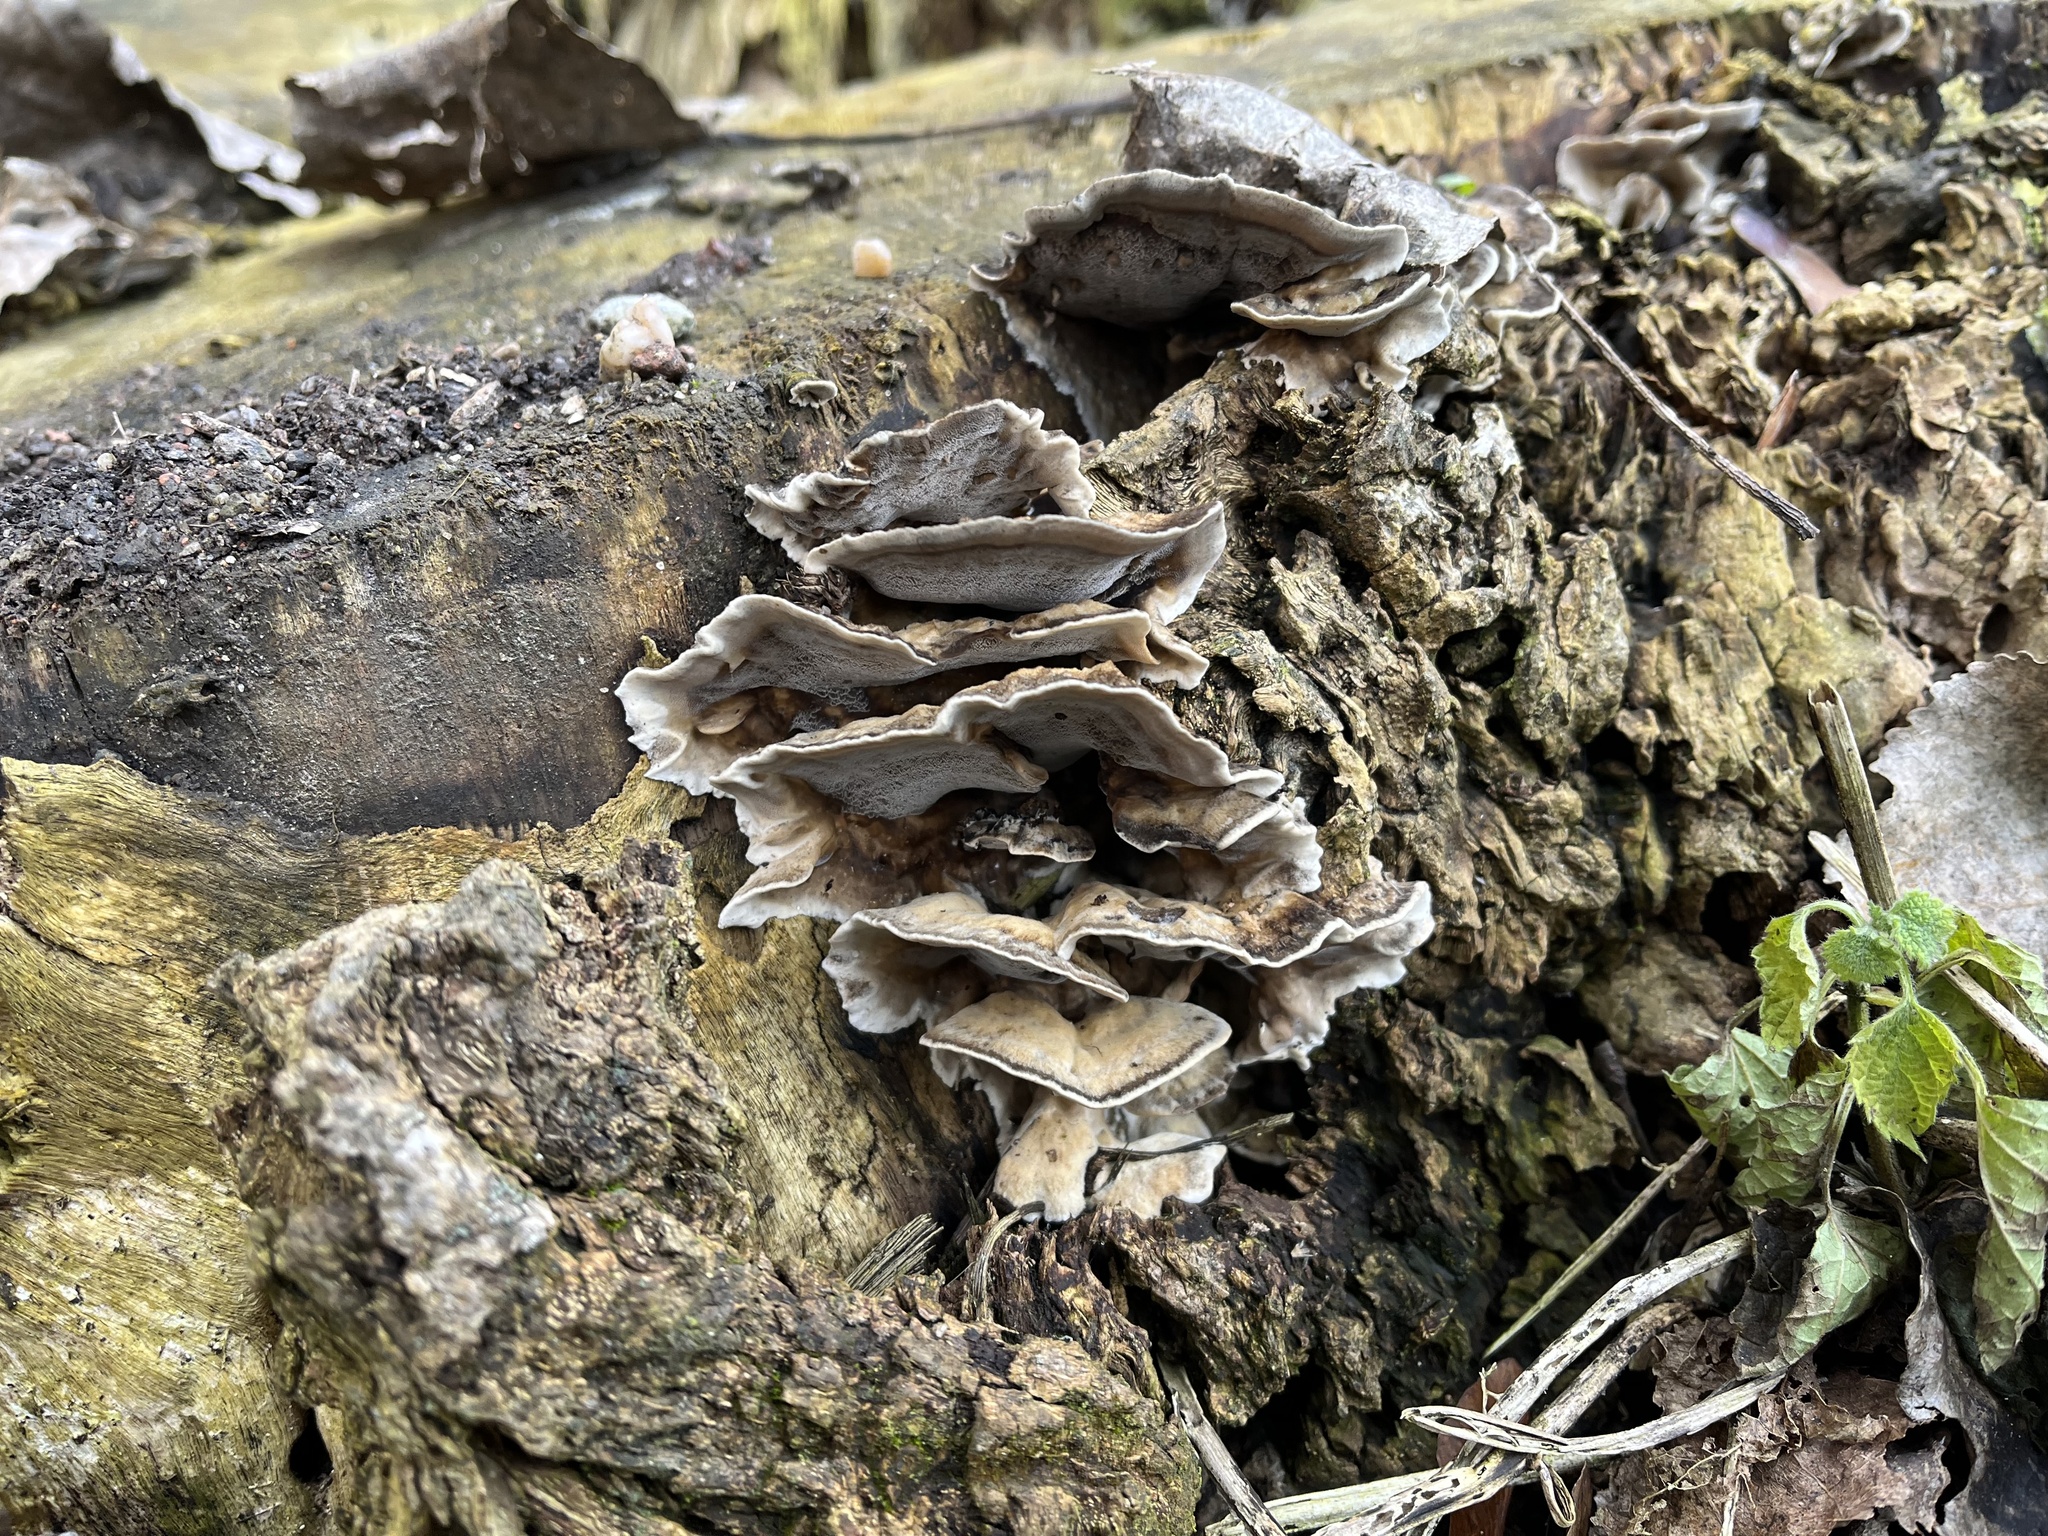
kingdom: Fungi
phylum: Basidiomycota
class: Agaricomycetes
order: Polyporales
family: Phanerochaetaceae
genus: Bjerkandera
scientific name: Bjerkandera adusta
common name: Smoky bracket
